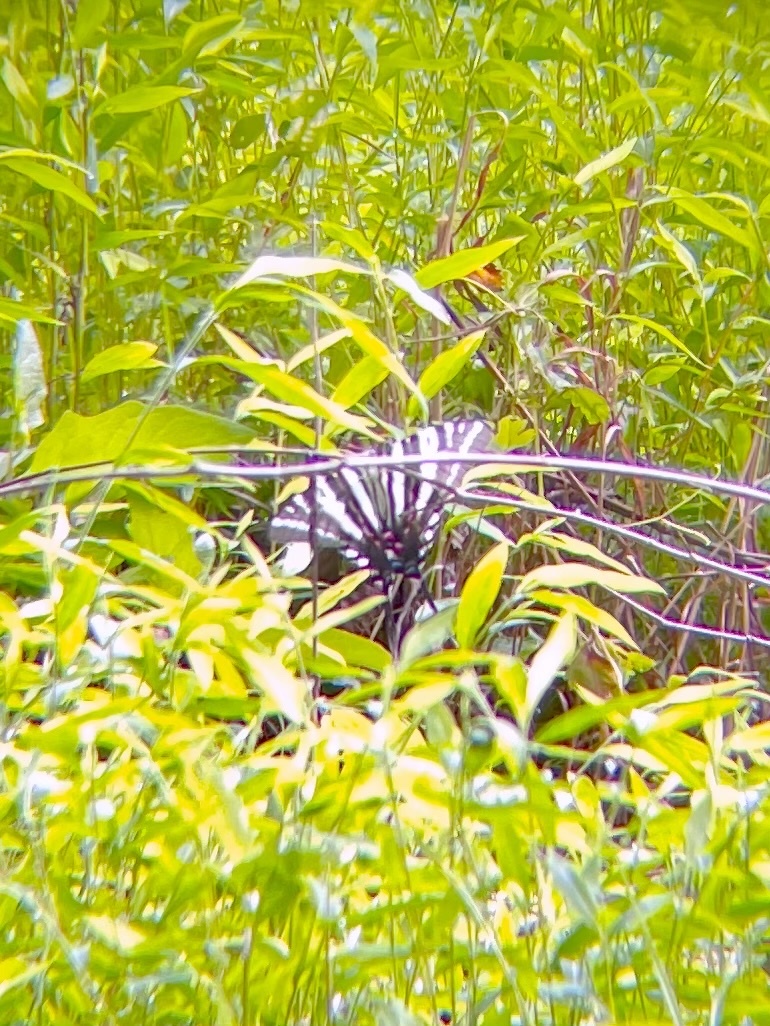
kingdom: Animalia
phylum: Arthropoda
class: Insecta
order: Lepidoptera
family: Papilionidae
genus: Protographium
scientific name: Protographium marcellus
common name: Zebra swallowtail
